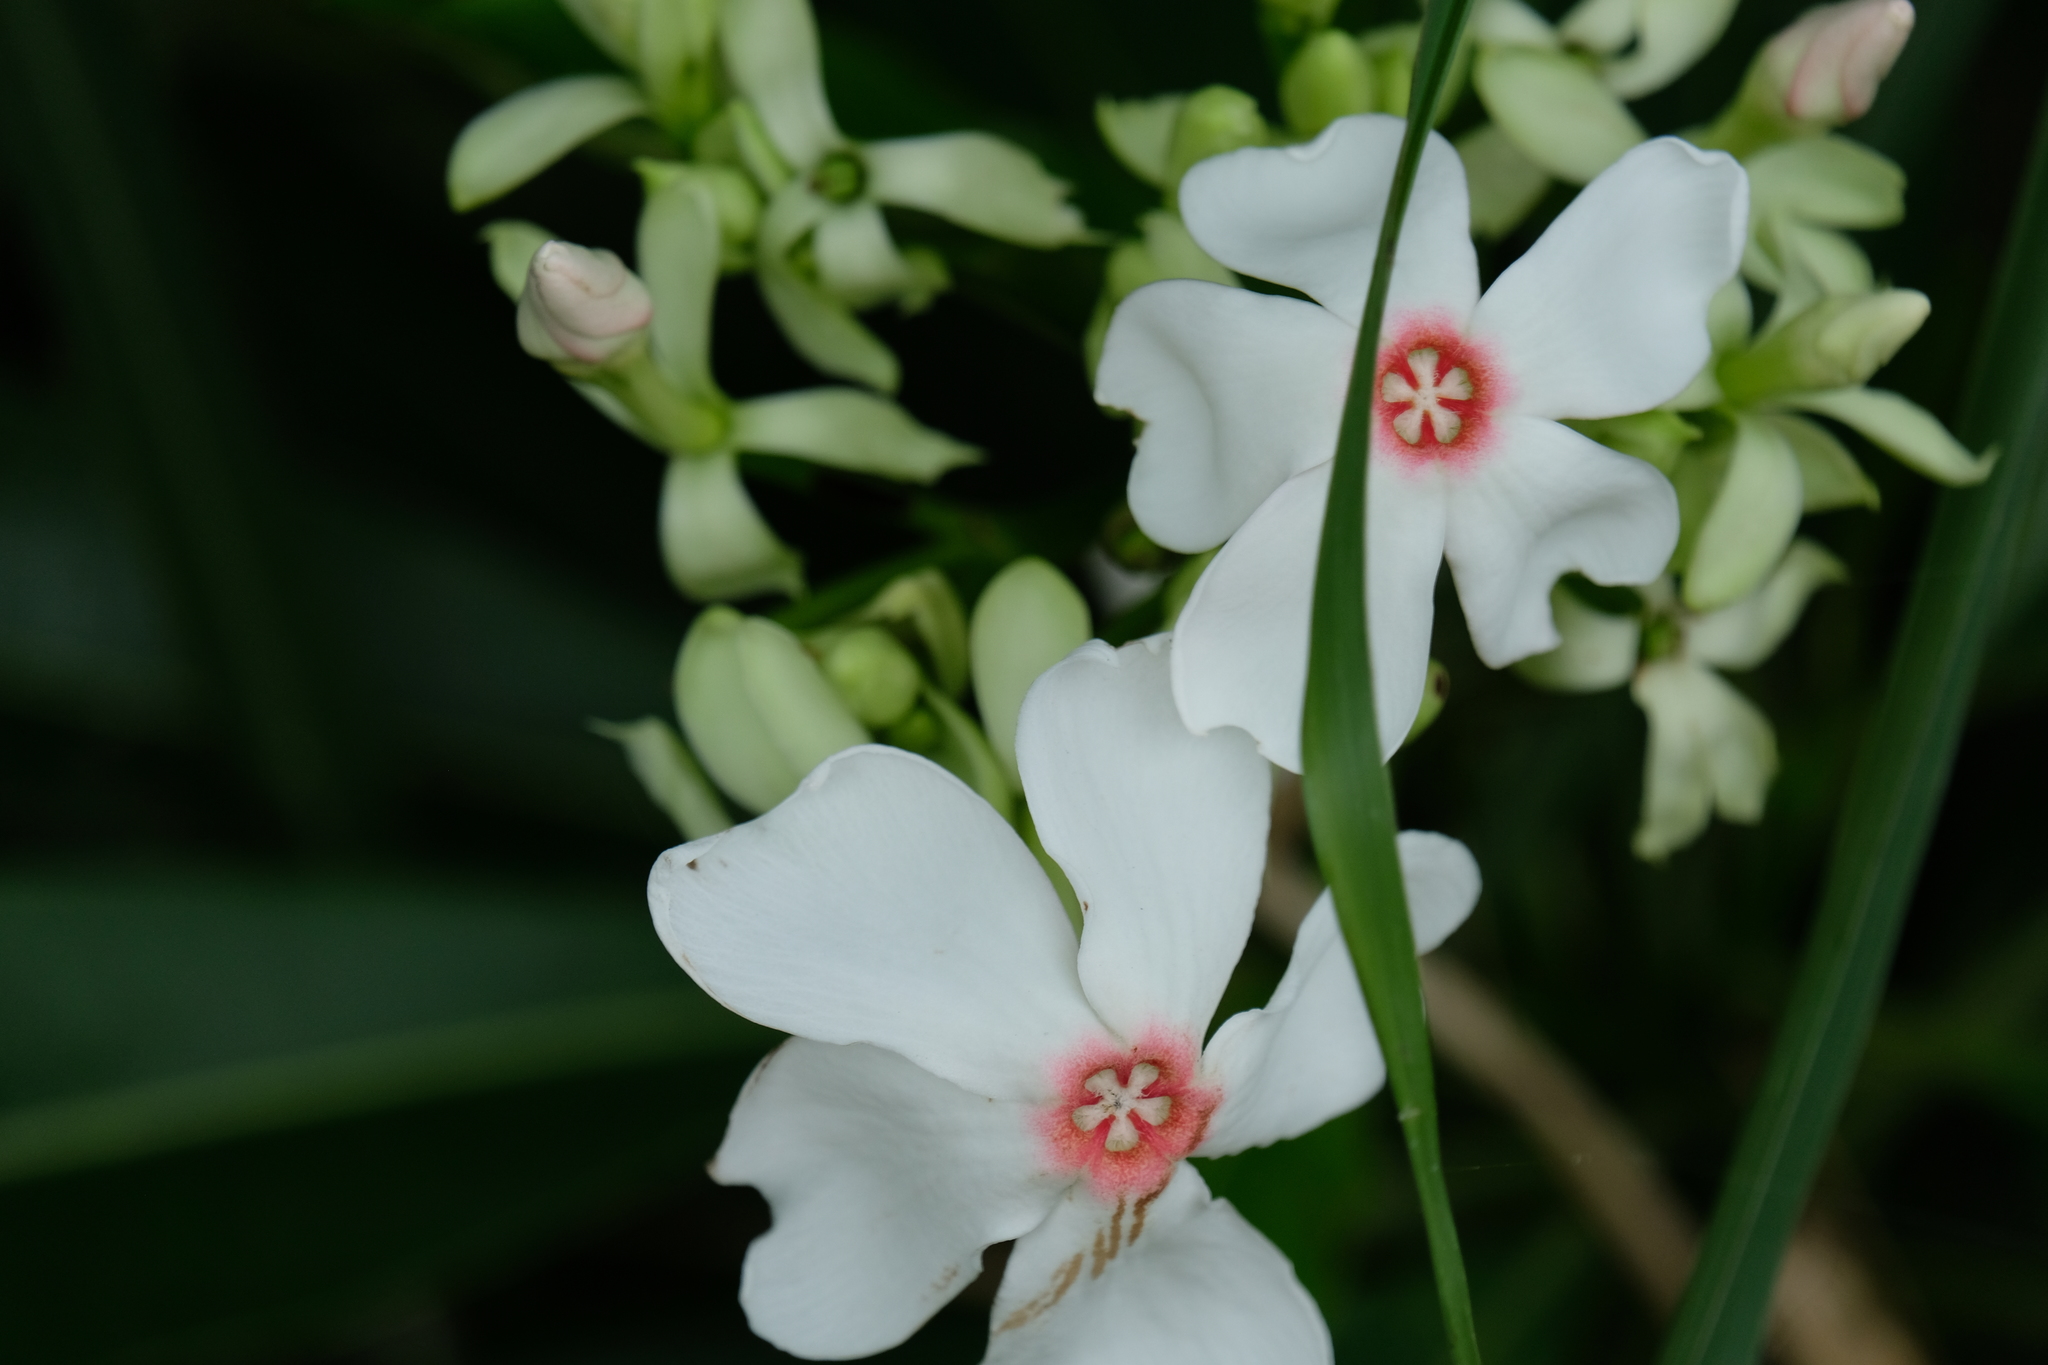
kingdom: Plantae
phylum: Tracheophyta
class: Magnoliopsida
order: Gentianales
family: Apocynaceae
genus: Cerbera
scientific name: Cerbera manghas
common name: Reva
